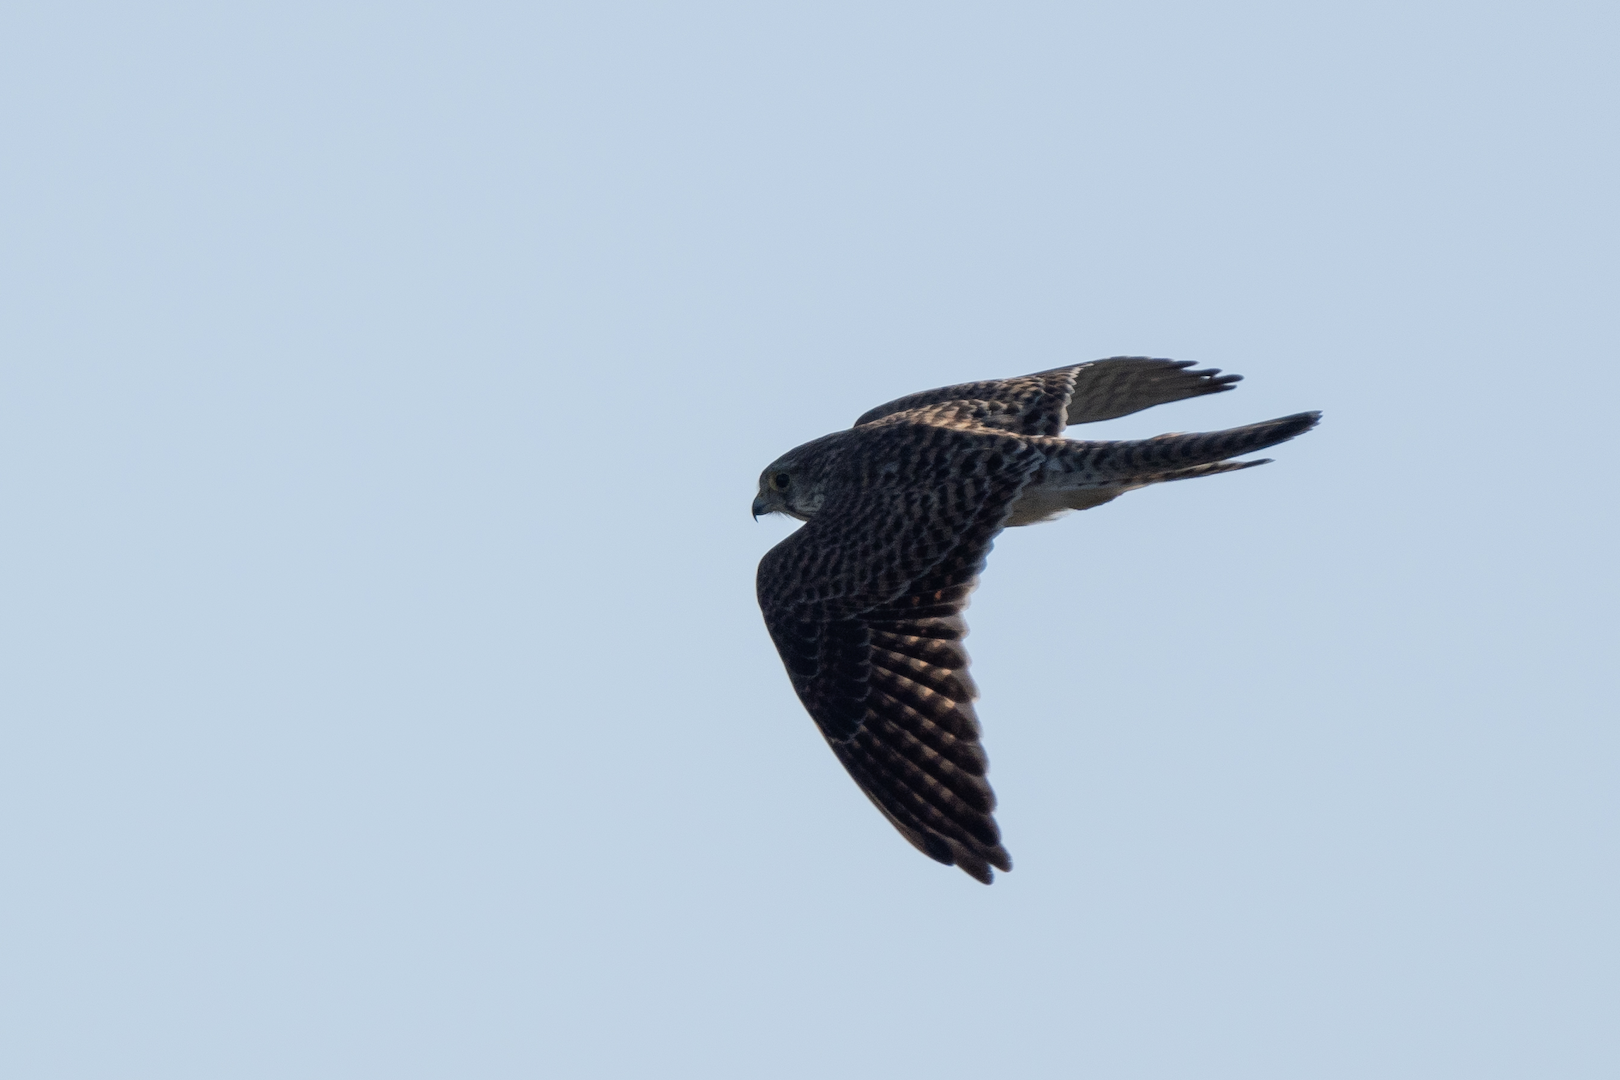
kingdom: Animalia
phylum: Chordata
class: Aves
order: Falconiformes
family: Falconidae
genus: Falco
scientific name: Falco tinnunculus
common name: Common kestrel
